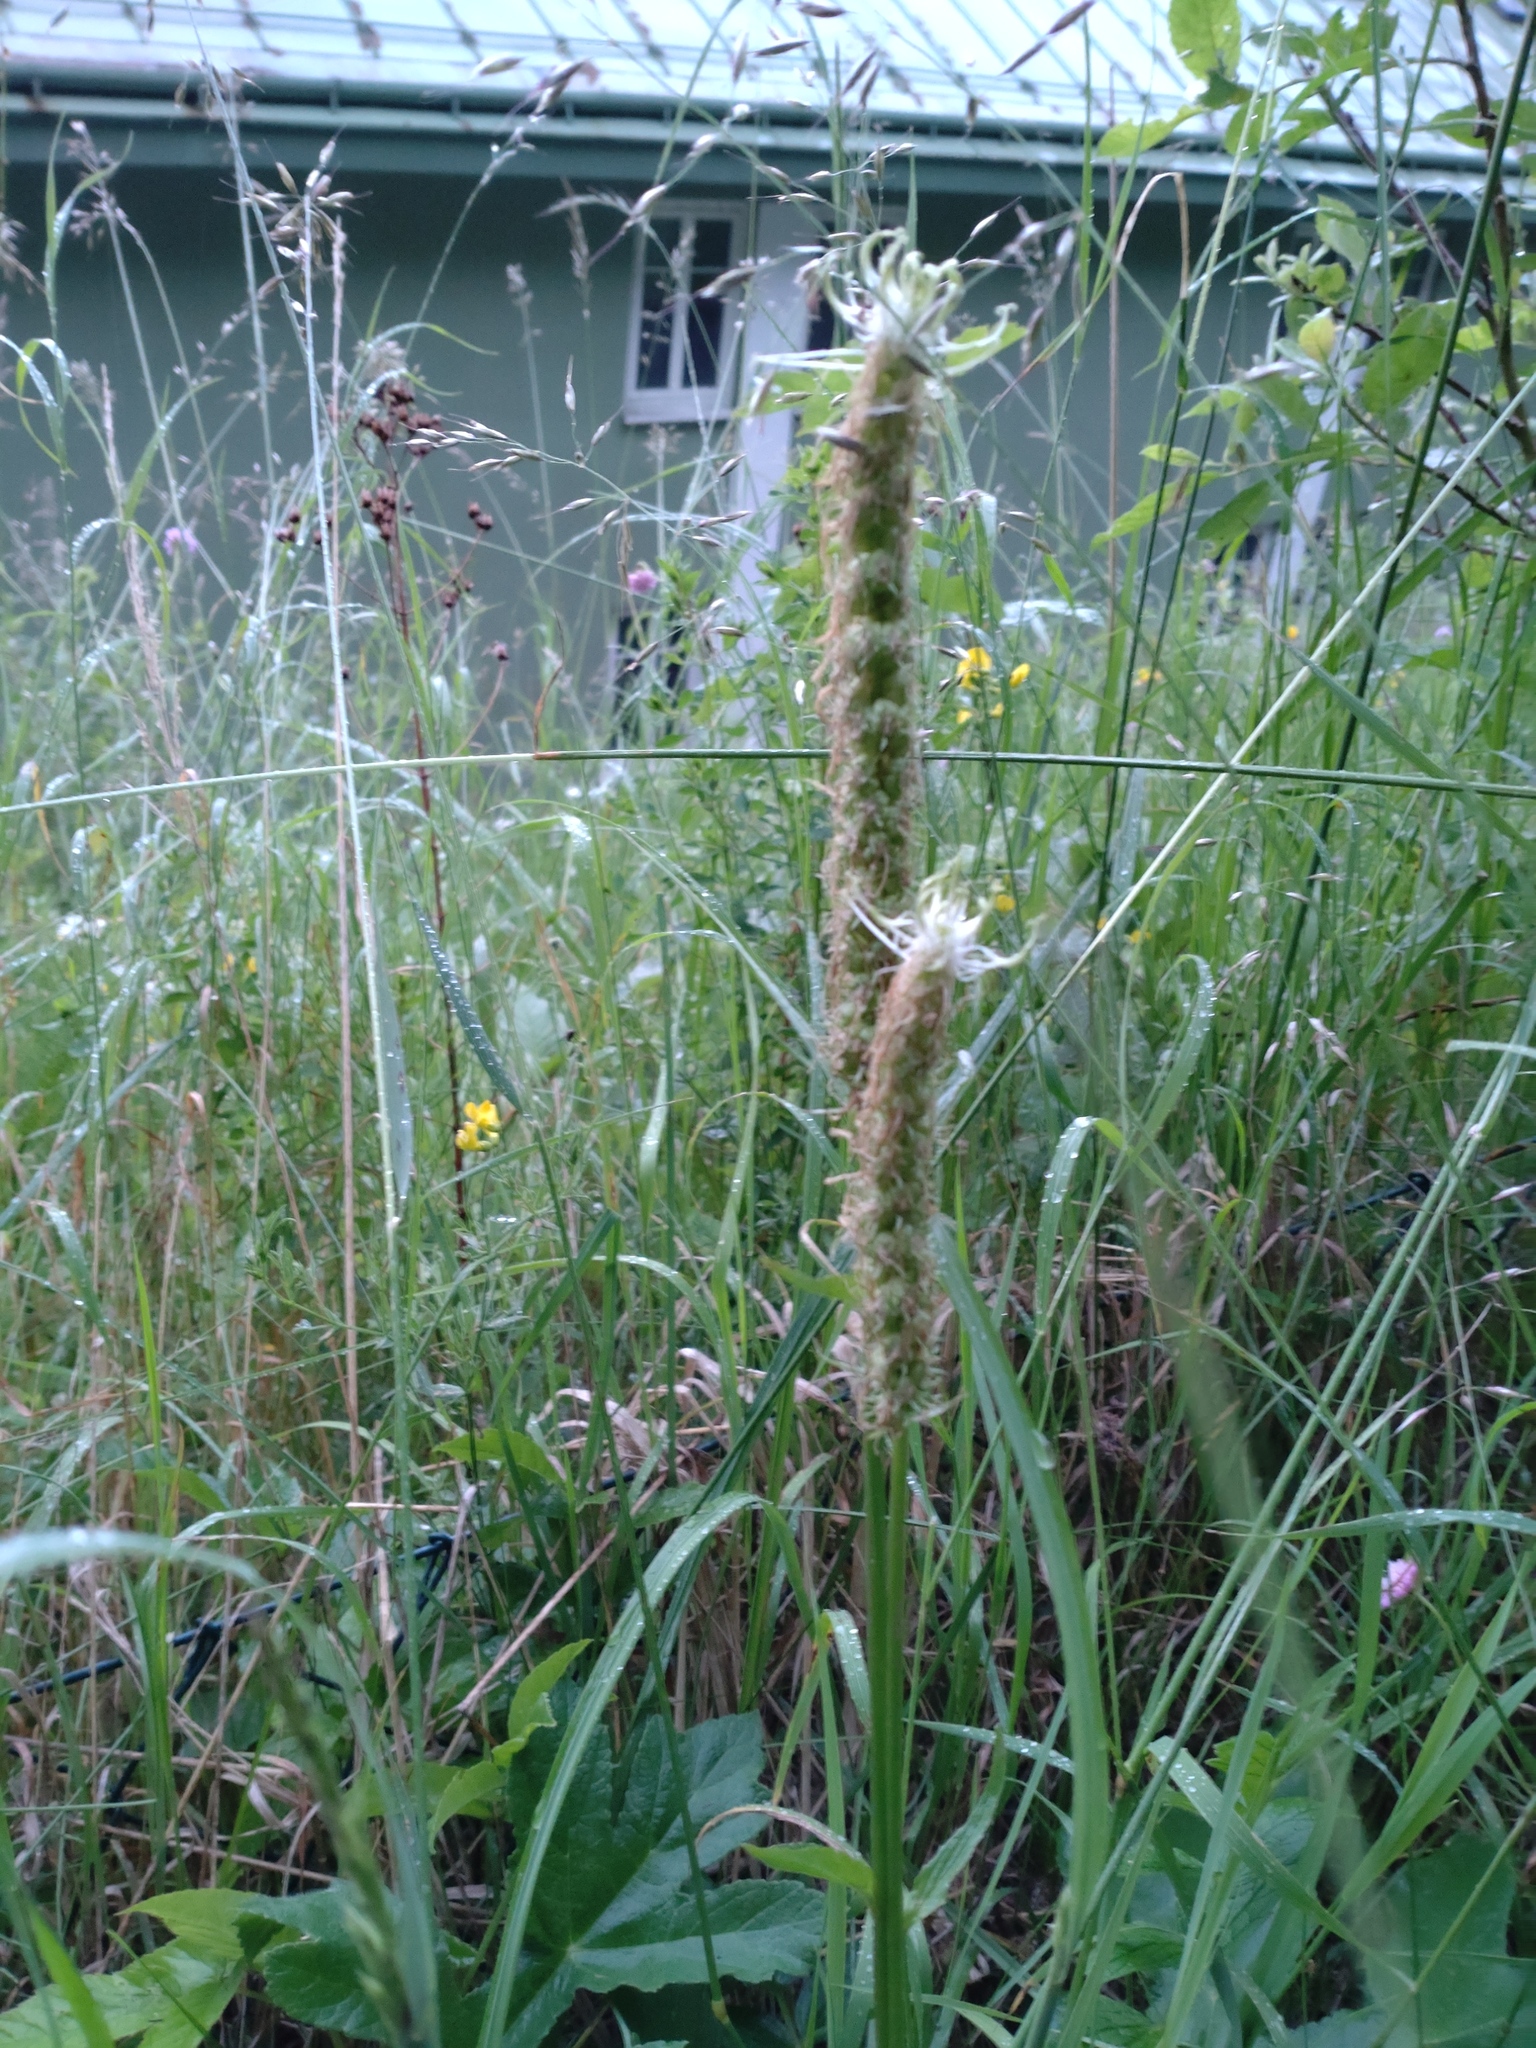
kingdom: Plantae
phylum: Tracheophyta
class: Magnoliopsida
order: Asterales
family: Campanulaceae
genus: Phyteuma
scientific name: Phyteuma spicatum
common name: Spiked rampion
